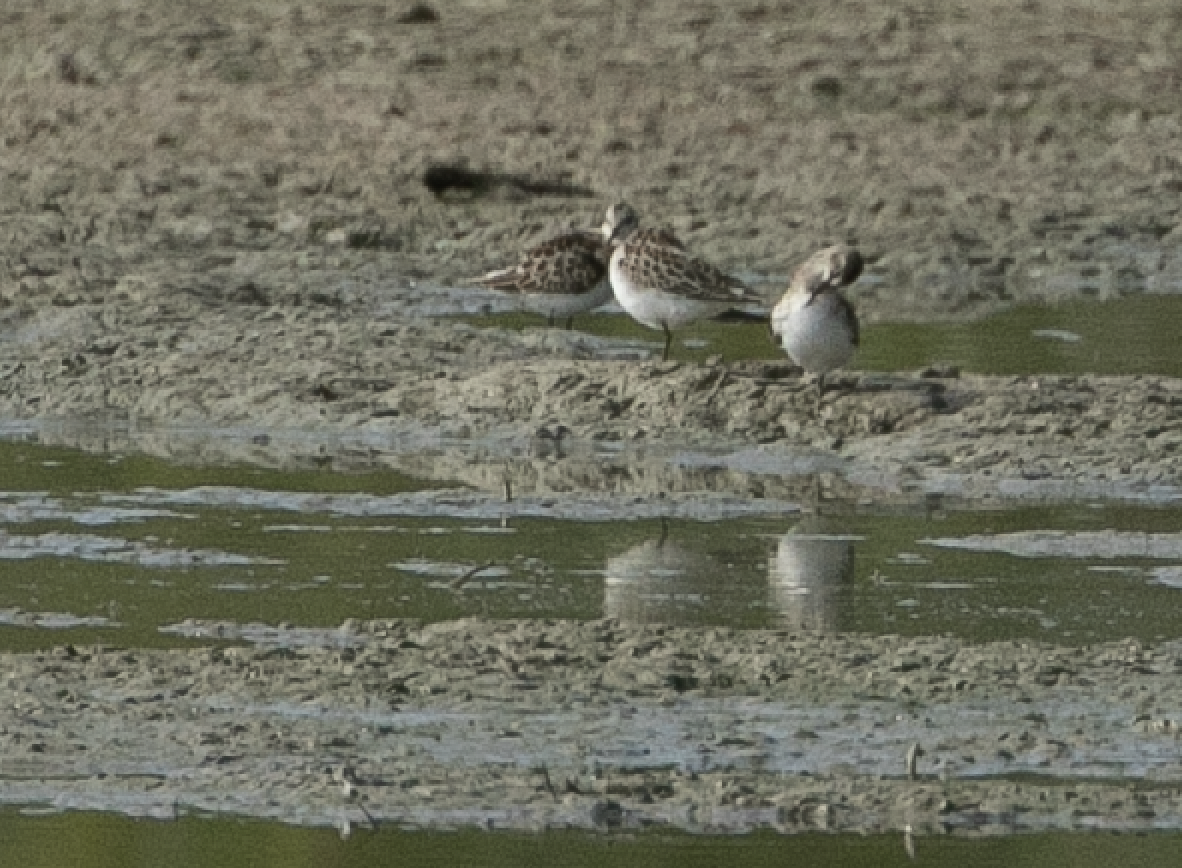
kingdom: Animalia
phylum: Chordata
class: Aves
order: Charadriiformes
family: Scolopacidae
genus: Calidris
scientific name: Calidris minuta
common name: Little stint
